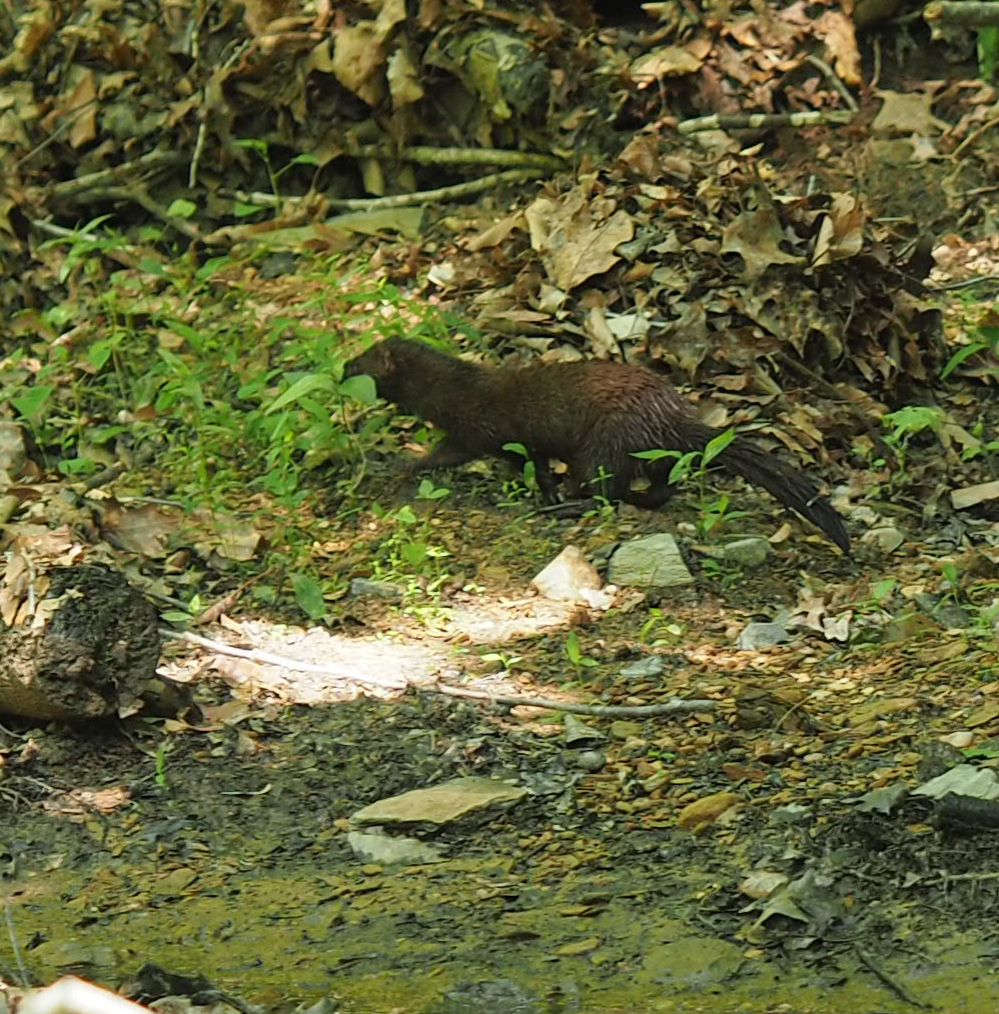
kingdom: Animalia
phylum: Chordata
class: Mammalia
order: Carnivora
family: Mustelidae
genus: Mustela
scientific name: Mustela
